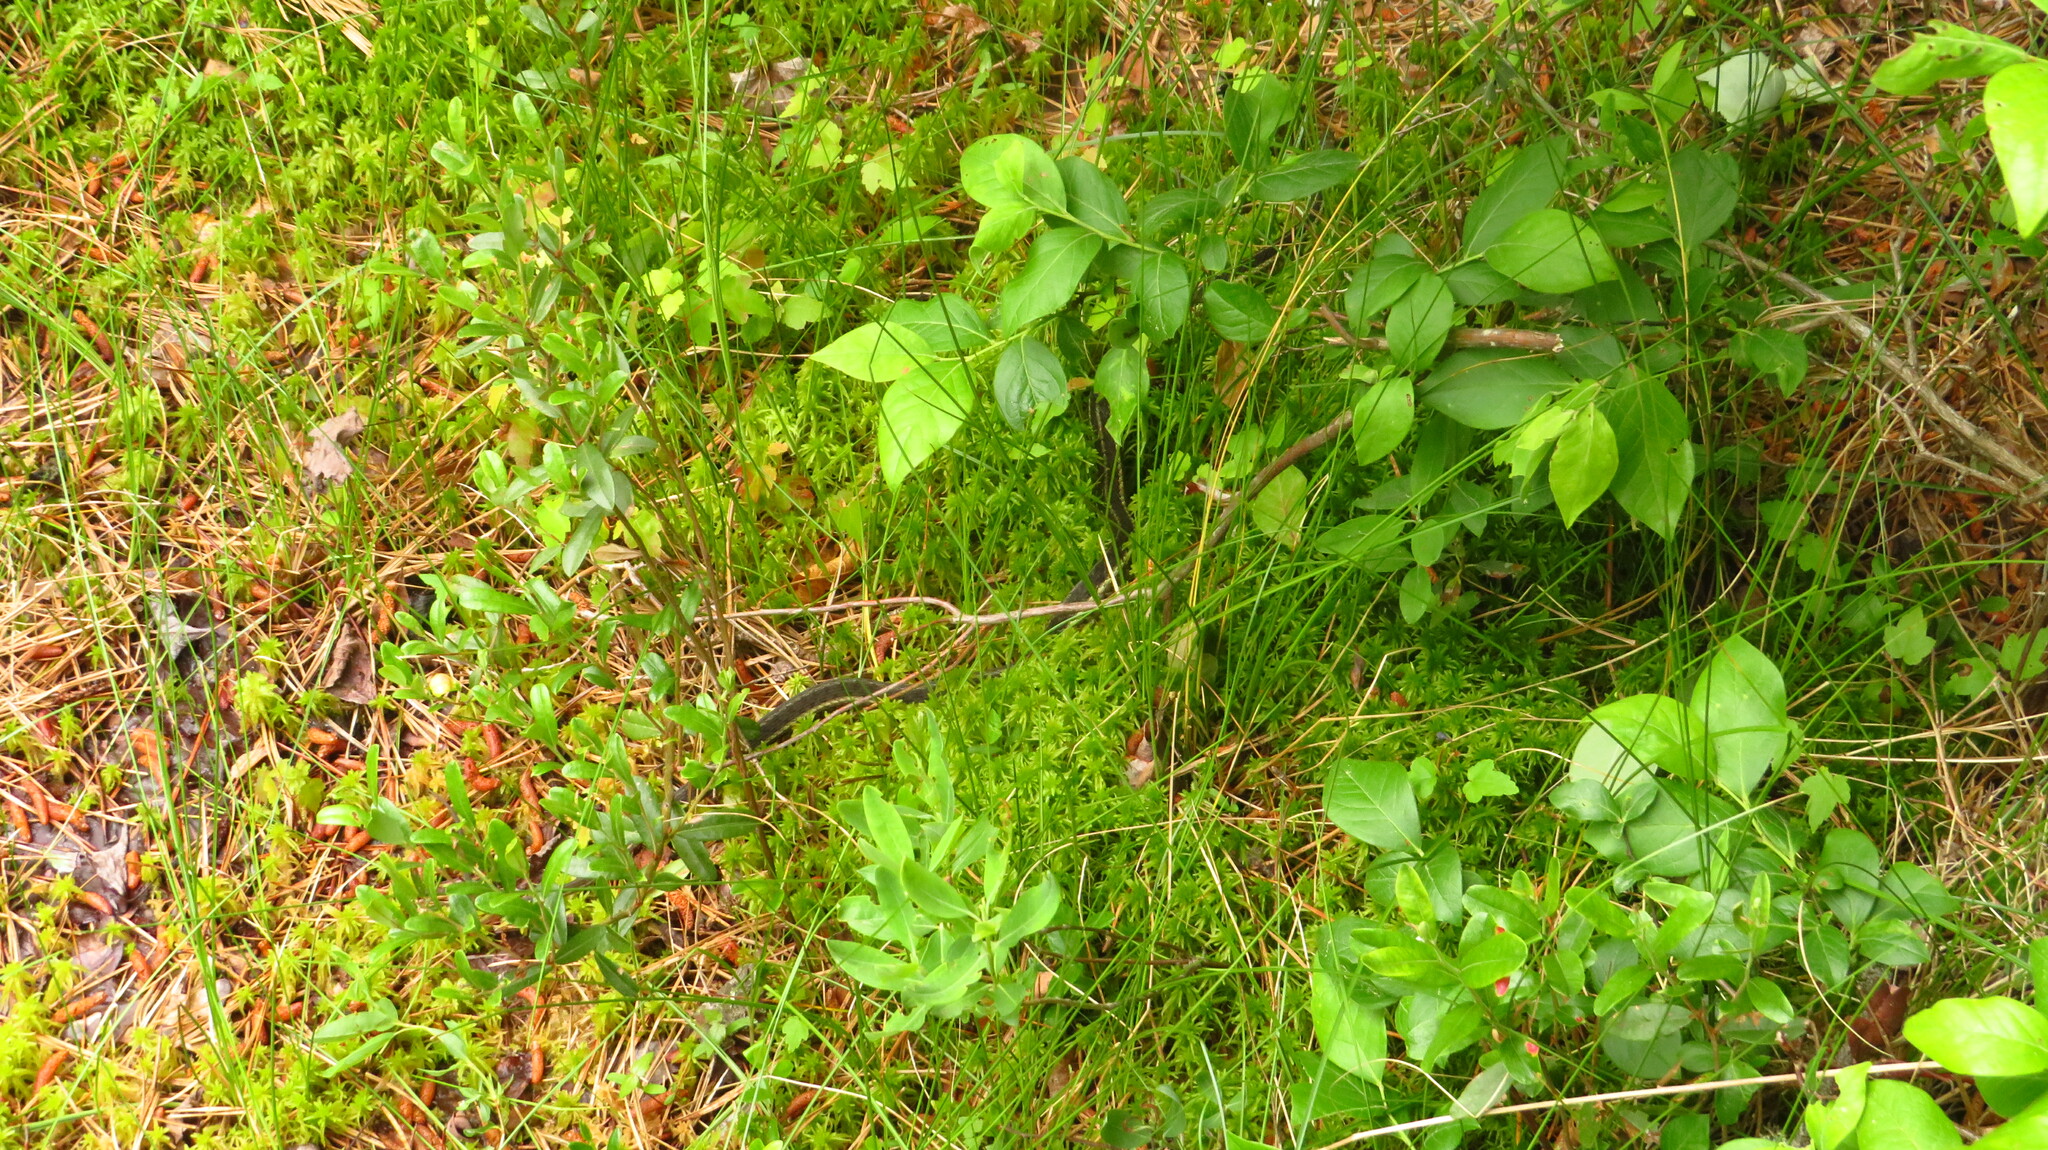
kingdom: Animalia
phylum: Chordata
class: Squamata
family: Colubridae
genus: Thamnophis
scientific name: Thamnophis sirtalis
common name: Common garter snake
